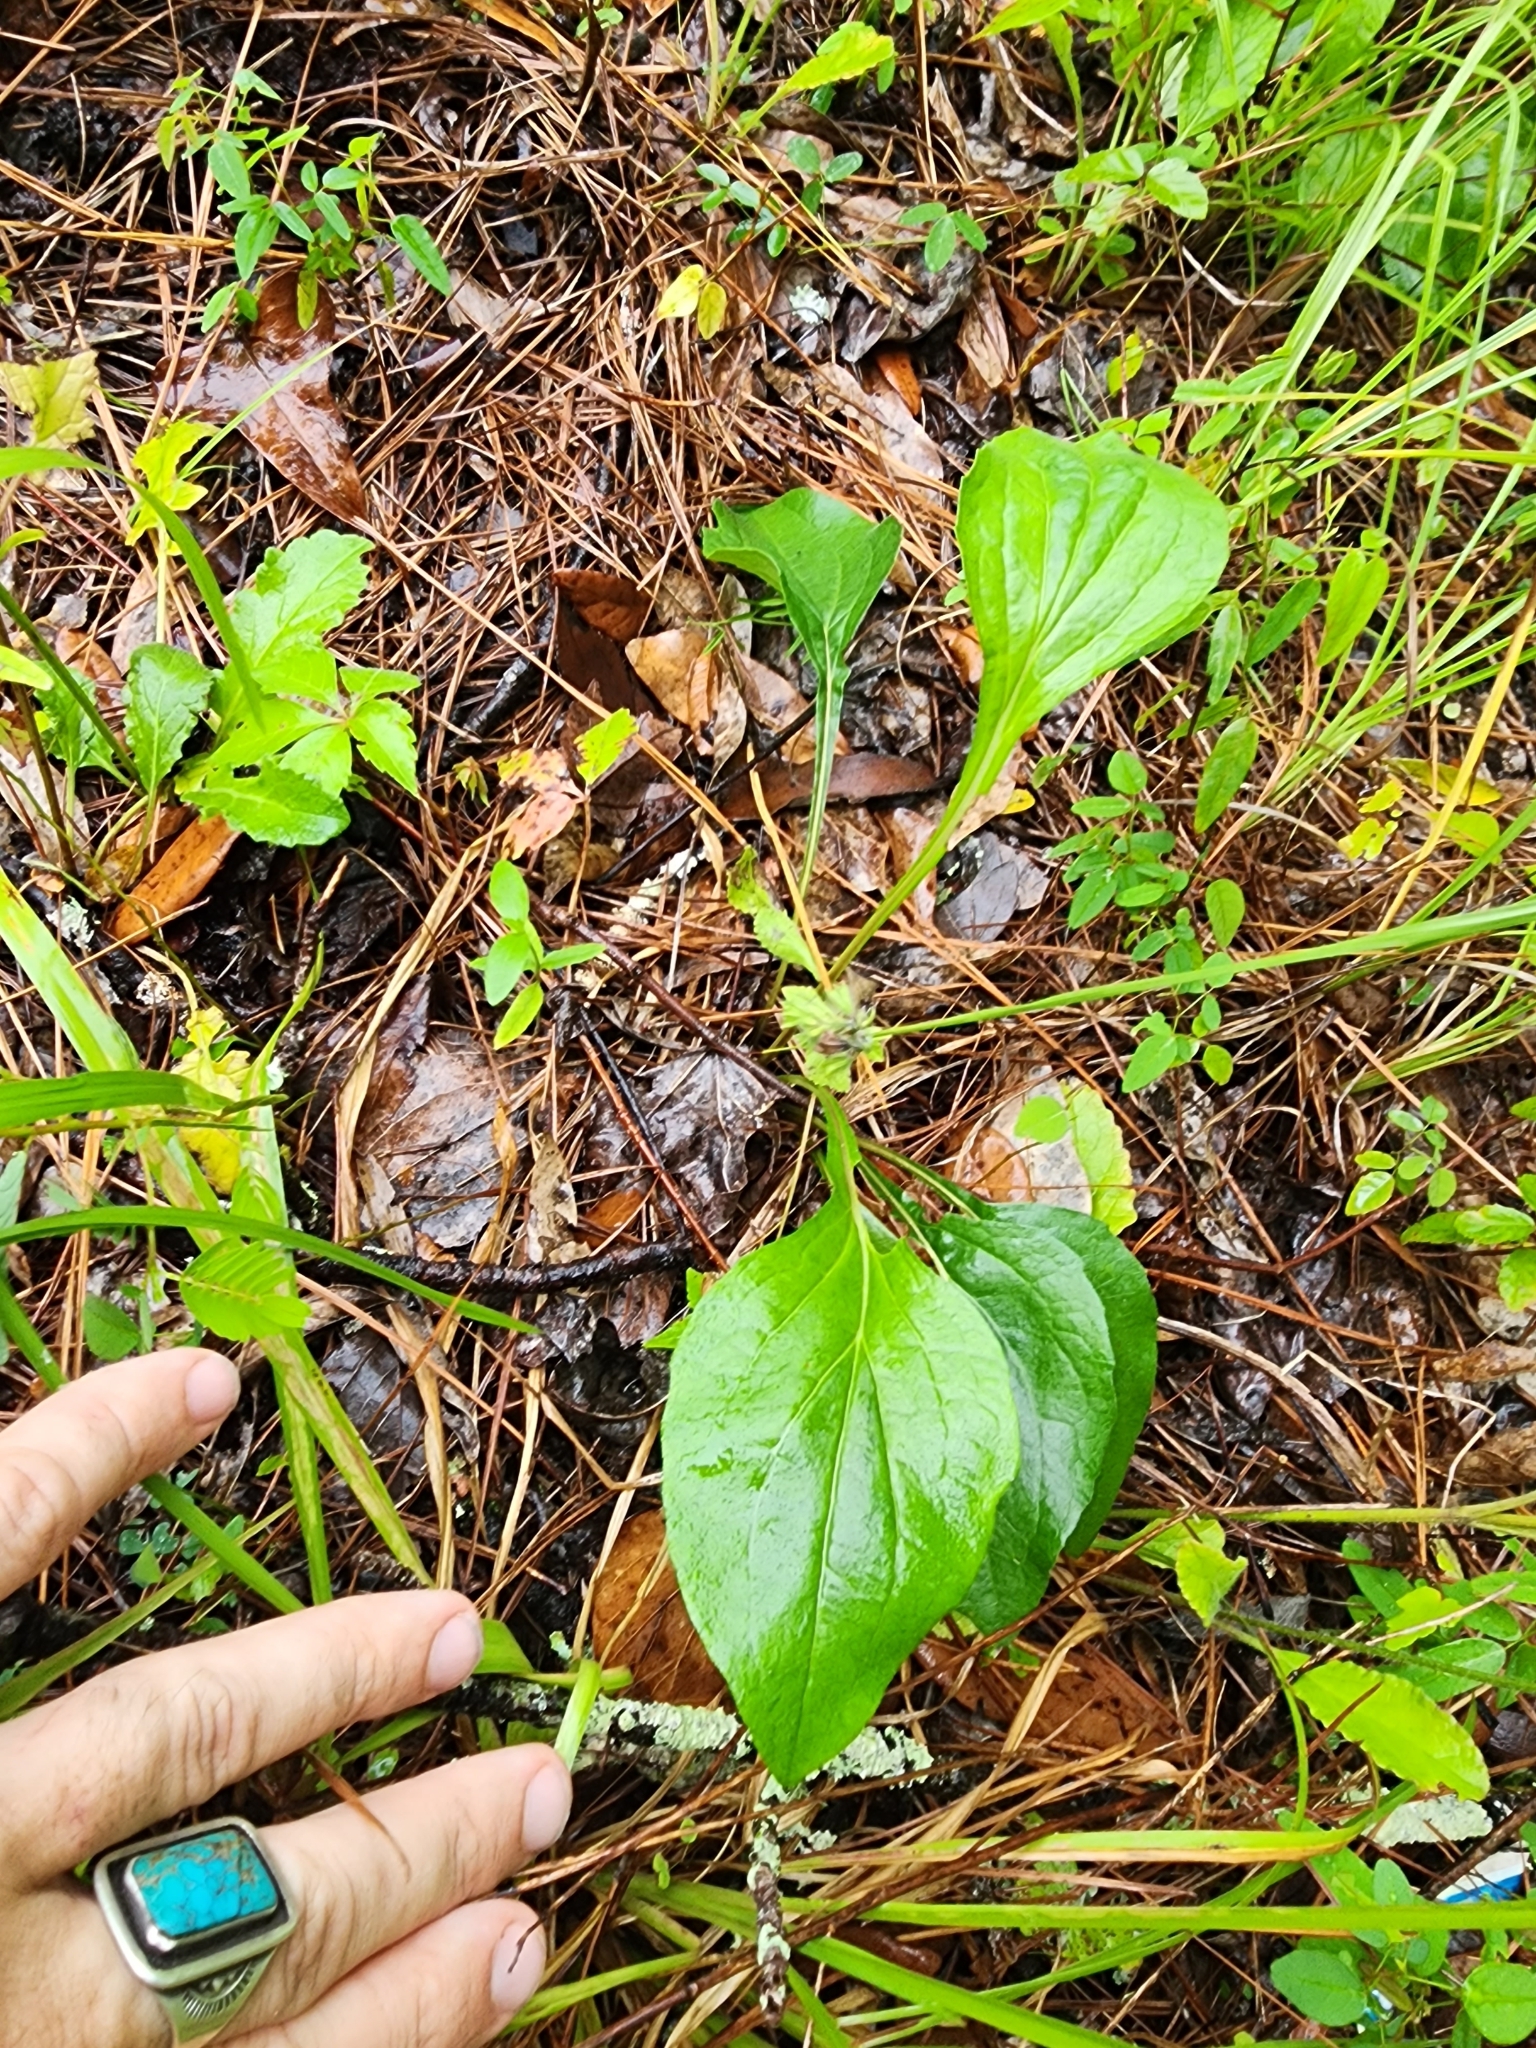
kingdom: Plantae
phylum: Tracheophyta
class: Magnoliopsida
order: Asterales
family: Asteraceae
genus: Echinacea
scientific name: Echinacea purpurea
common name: Broad-leaved purple coneflower
